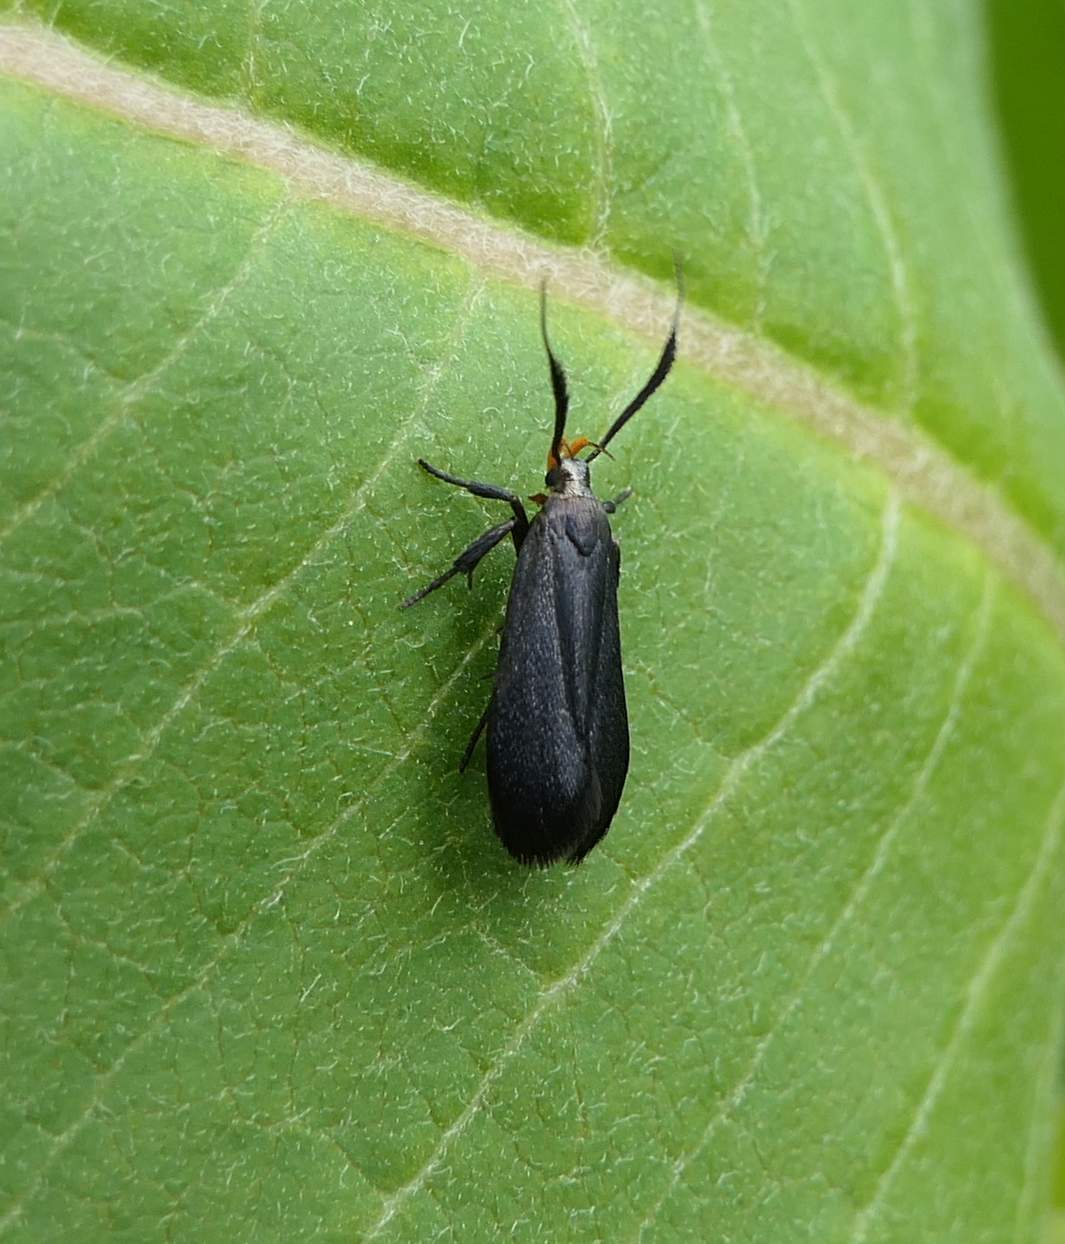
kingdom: Animalia
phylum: Arthropoda
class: Insecta
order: Lepidoptera
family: Gelechiidae
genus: Dichomeris
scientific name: Dichomeris nonstrigella
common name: Little devil moth
